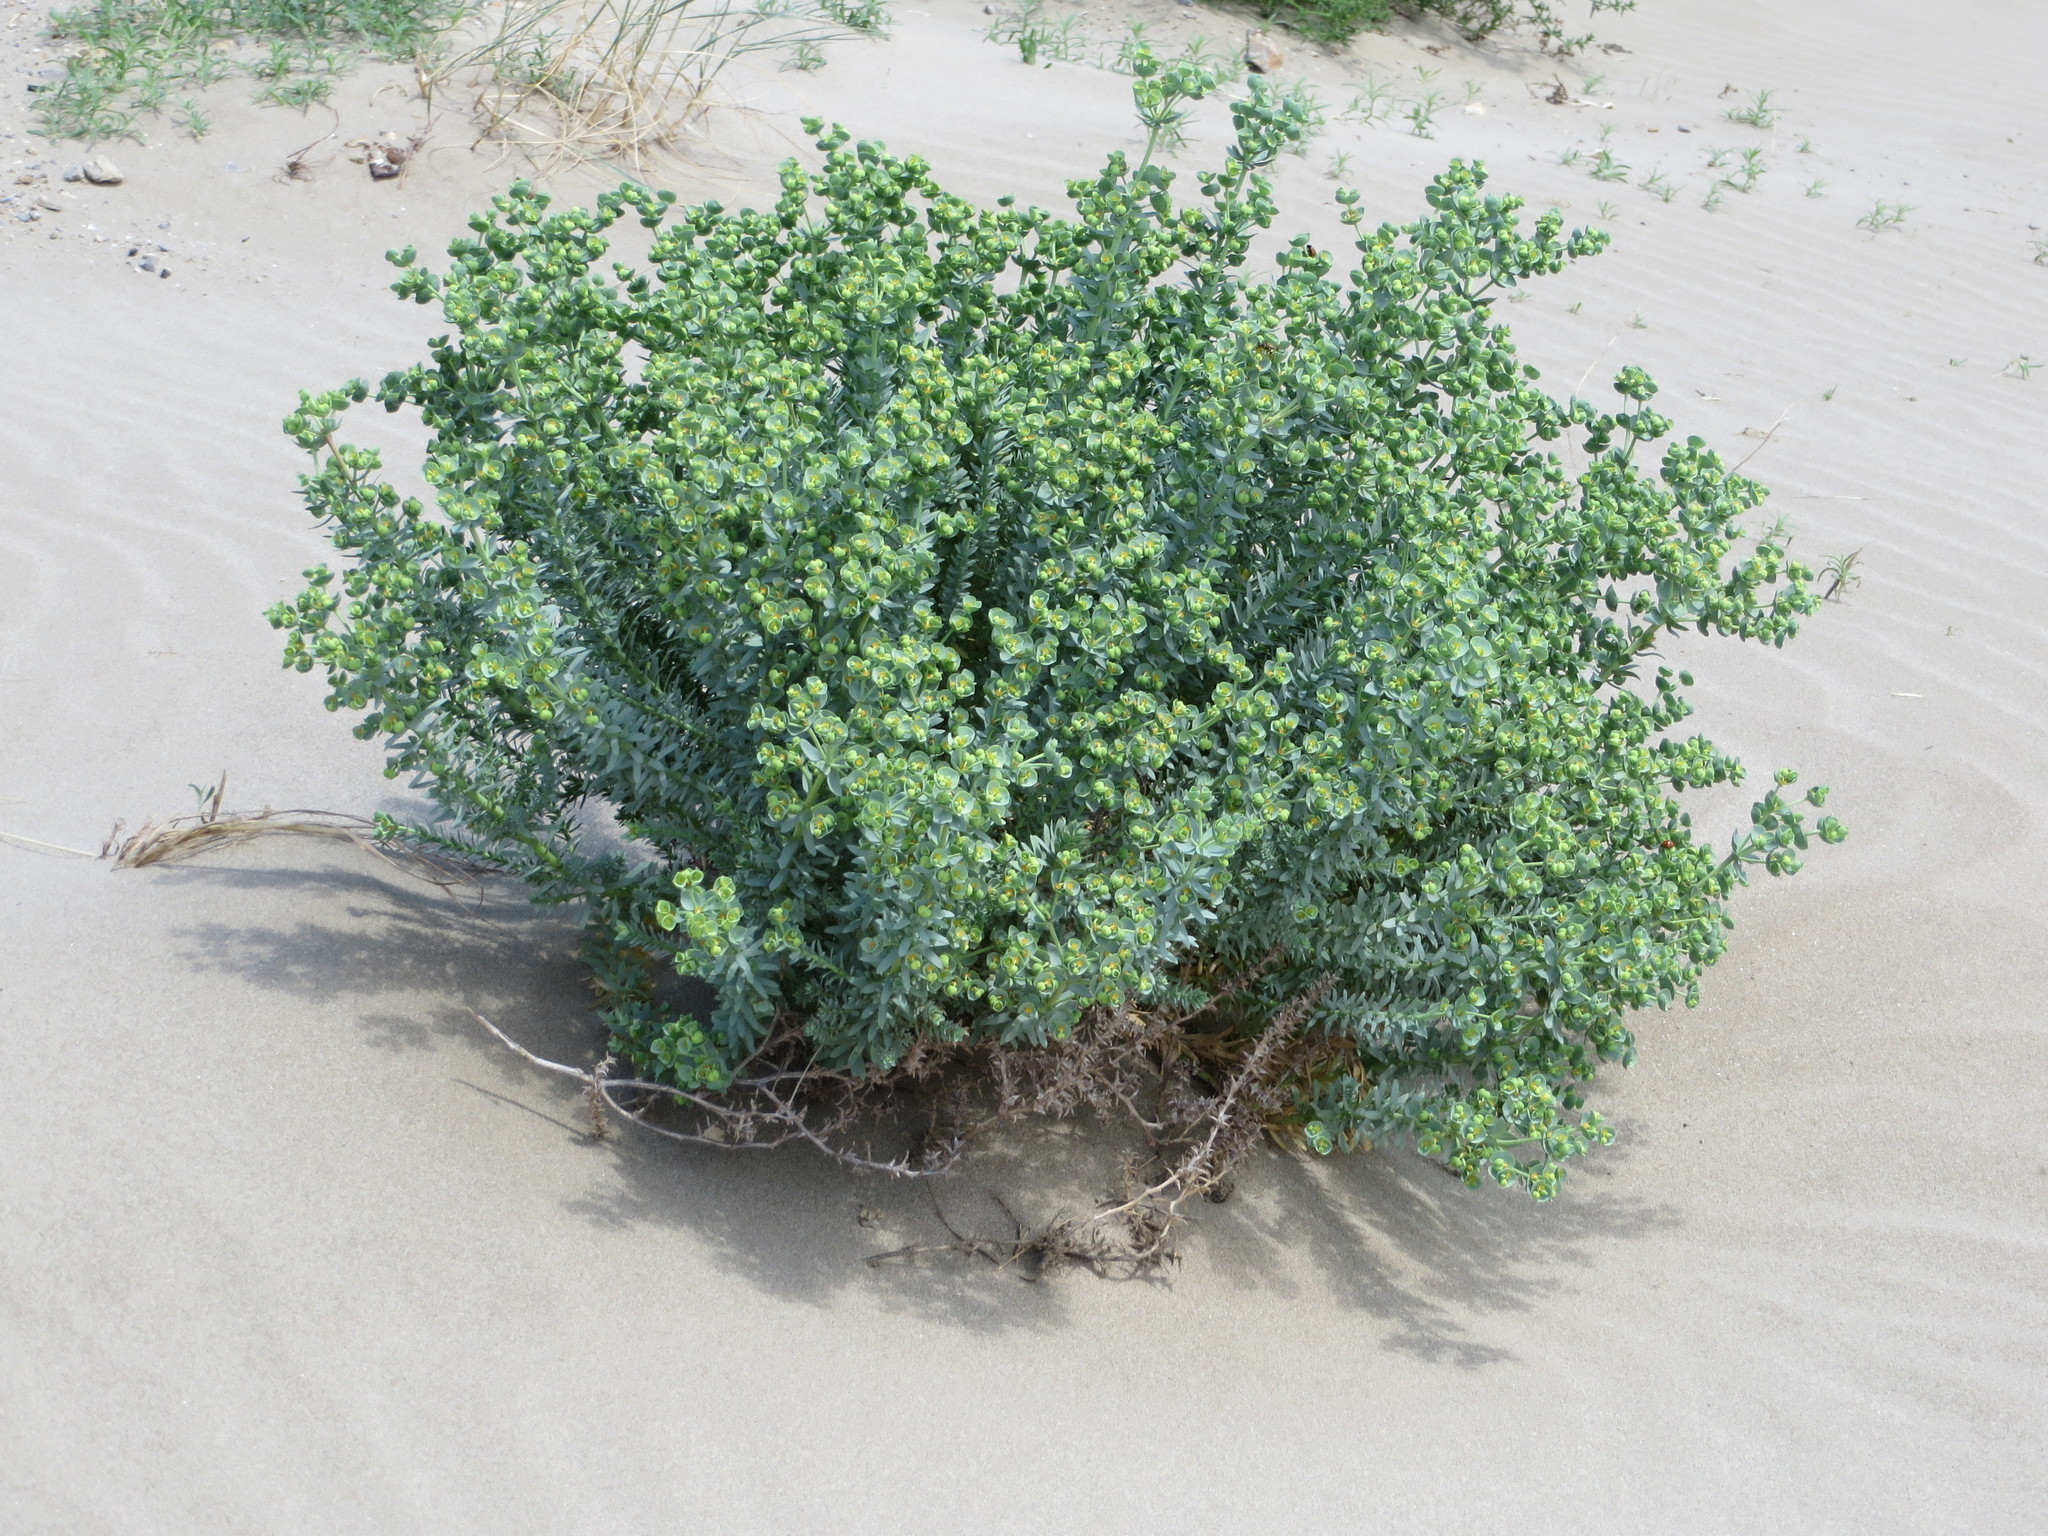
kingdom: Plantae
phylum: Tracheophyta
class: Magnoliopsida
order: Malpighiales
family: Euphorbiaceae
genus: Euphorbia
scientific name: Euphorbia paralias
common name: Sea spurge
